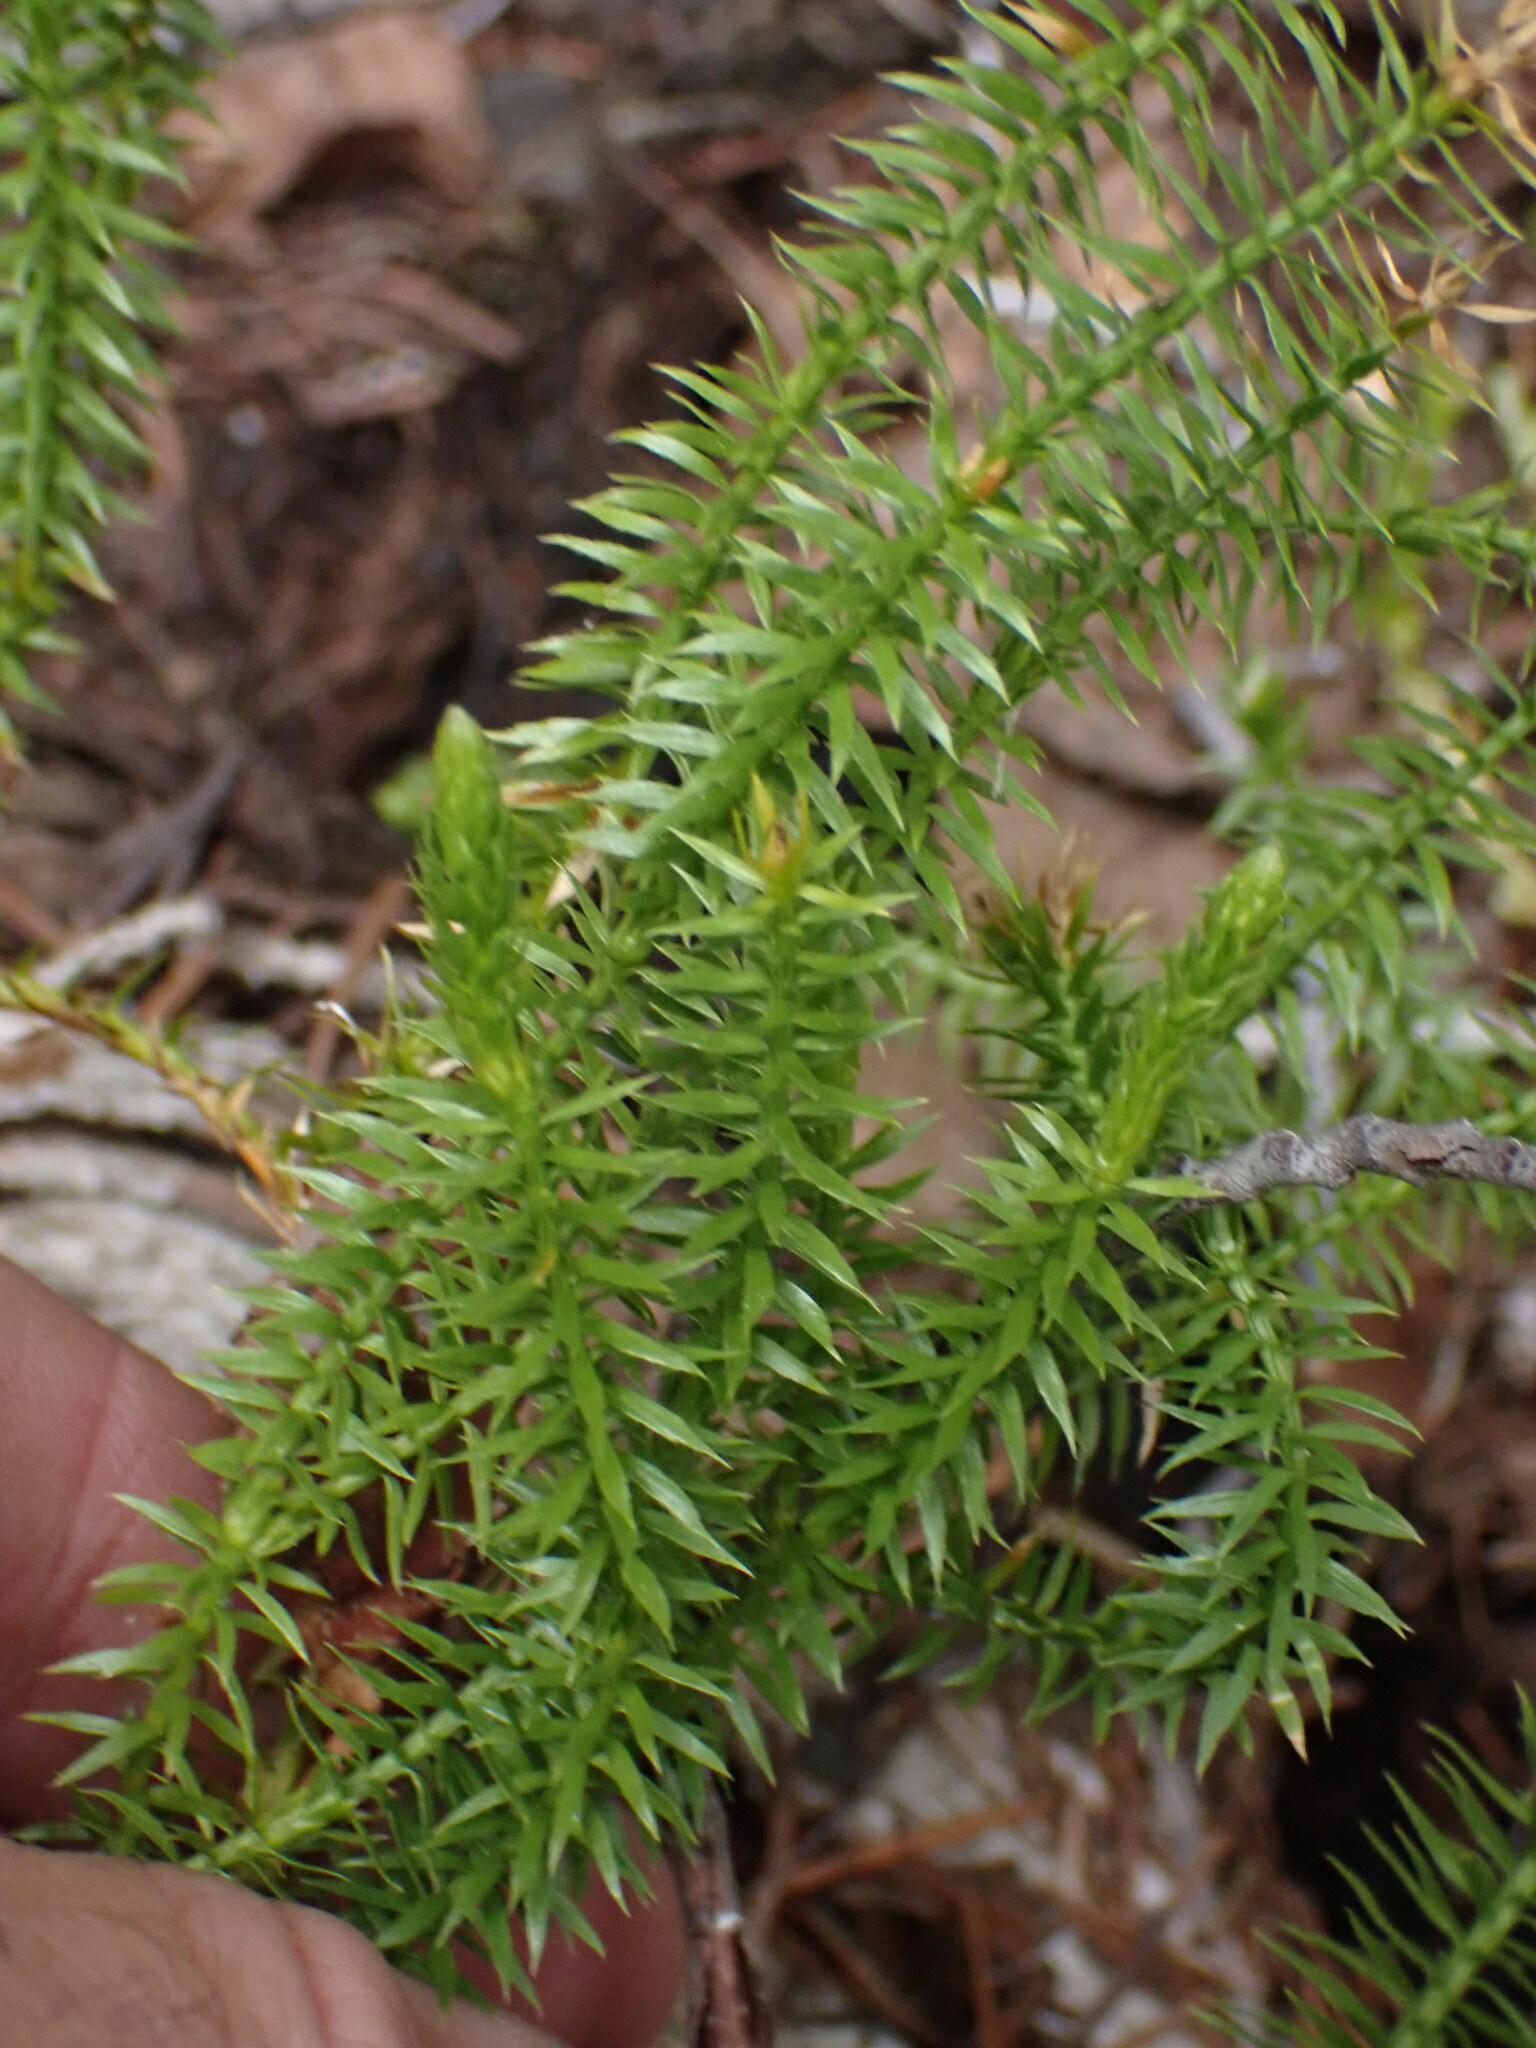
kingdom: Plantae
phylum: Tracheophyta
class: Lycopodiopsida
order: Lycopodiales
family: Lycopodiaceae
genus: Spinulum
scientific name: Spinulum annotinum
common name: Interrupted club-moss
